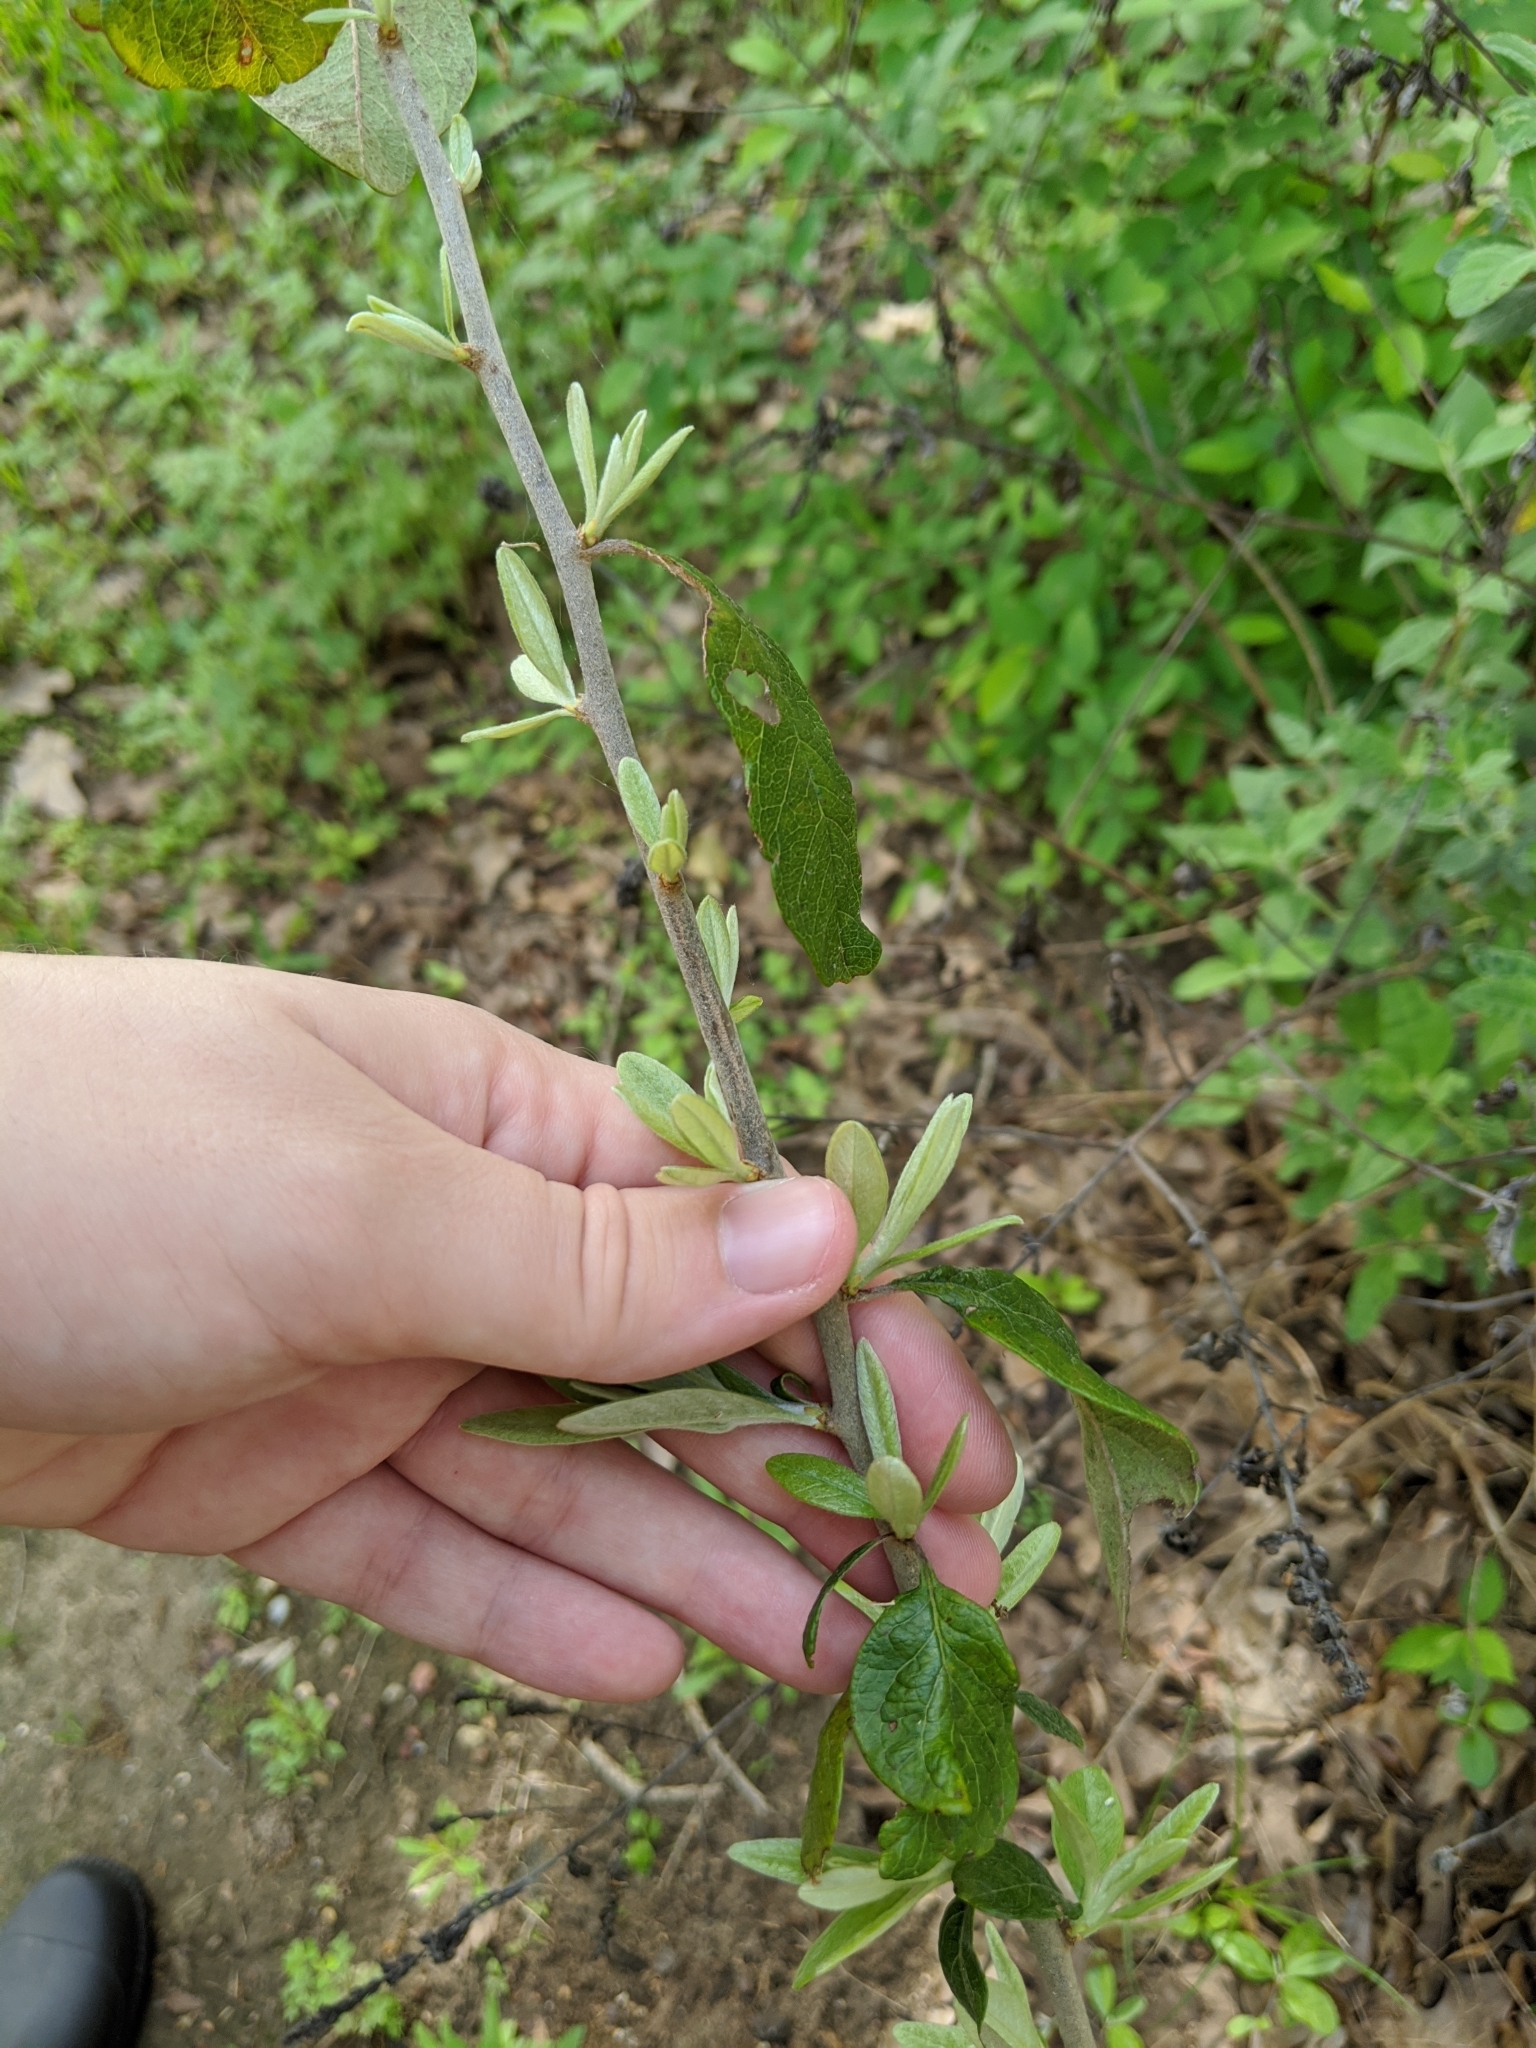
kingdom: Plantae
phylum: Tracheophyta
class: Magnoliopsida
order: Ericales
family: Sapotaceae
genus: Sideroxylon
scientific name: Sideroxylon lanuginosum
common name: Chittamwood
